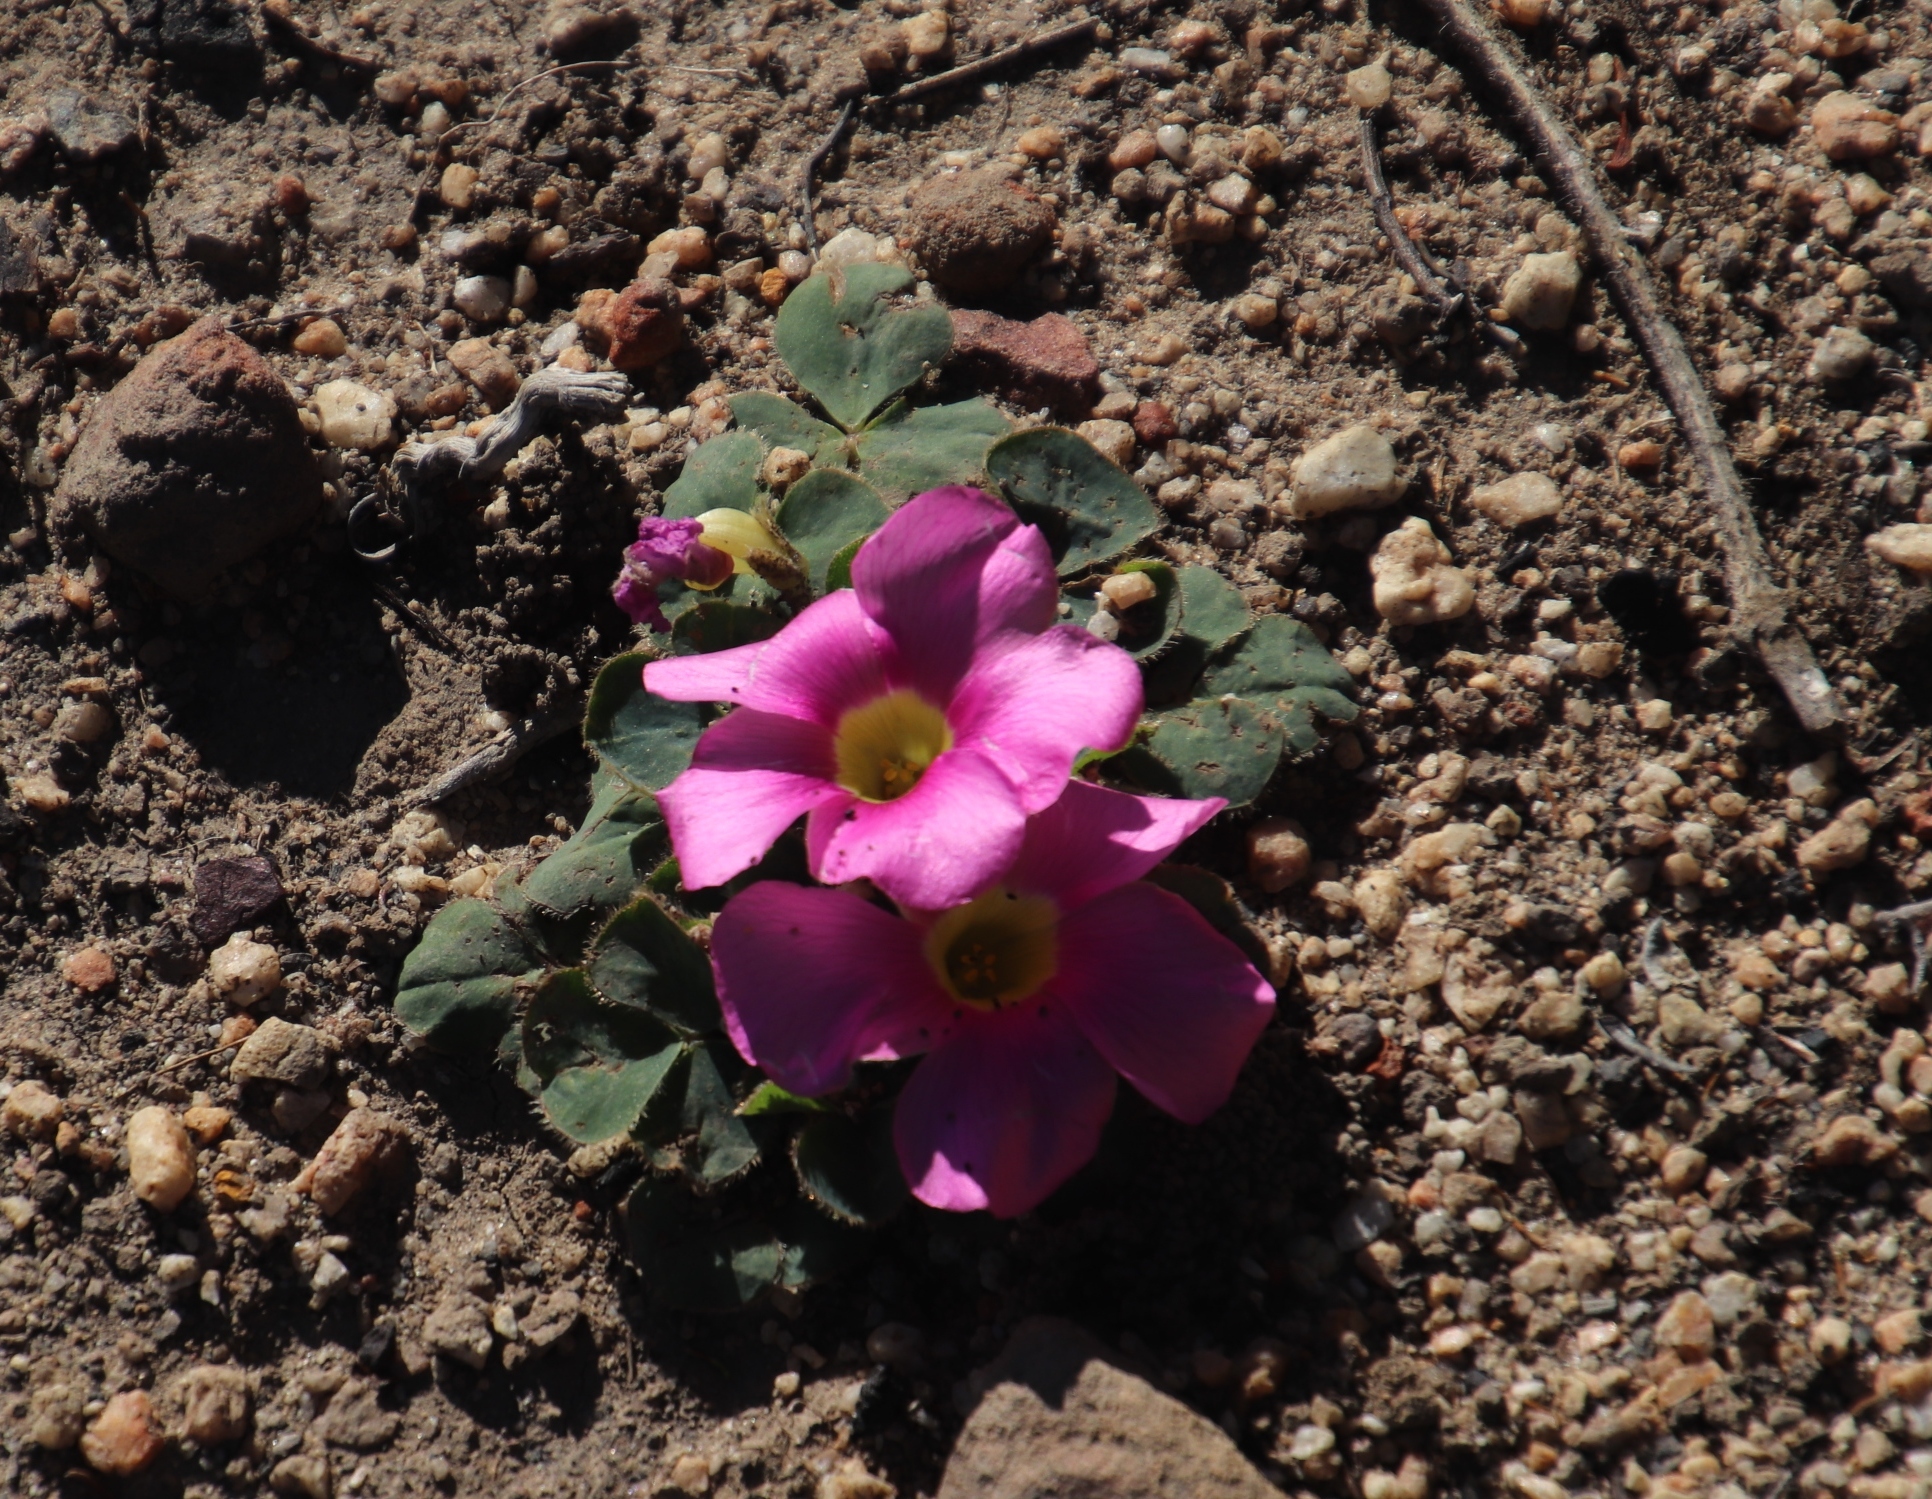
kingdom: Plantae
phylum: Tracheophyta
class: Magnoliopsida
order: Oxalidales
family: Oxalidaceae
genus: Oxalis
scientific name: Oxalis purpurea
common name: Purple woodsorrel
